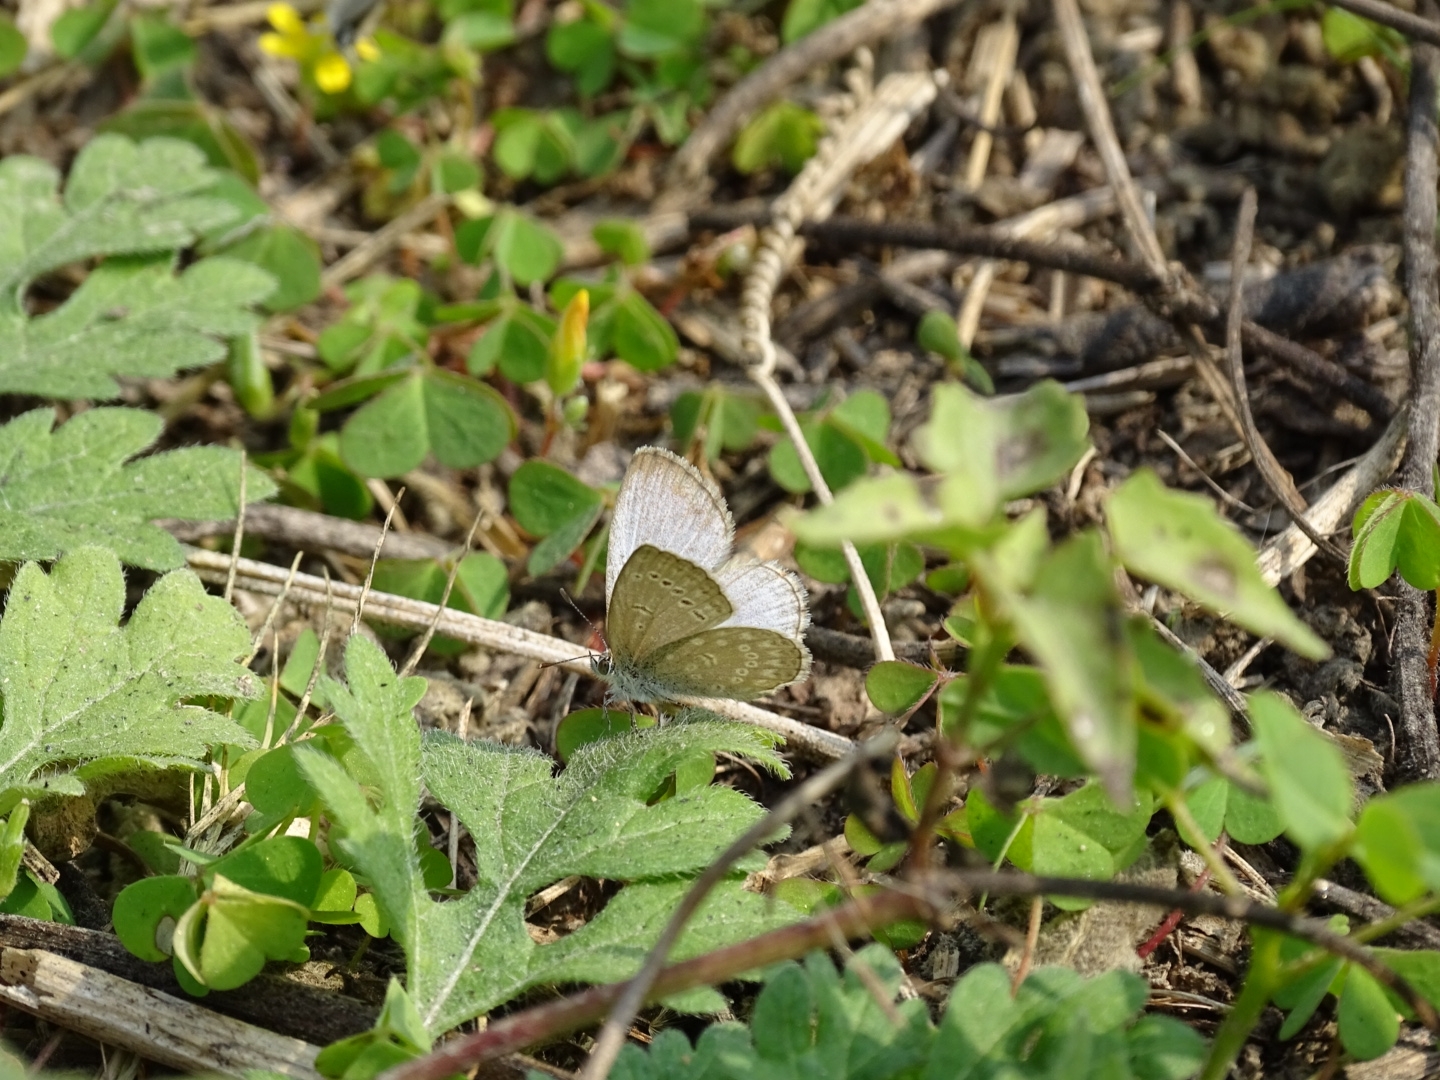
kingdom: Animalia
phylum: Arthropoda
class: Insecta
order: Lepidoptera
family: Lycaenidae
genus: Pseudozizeeria
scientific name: Pseudozizeeria maha
